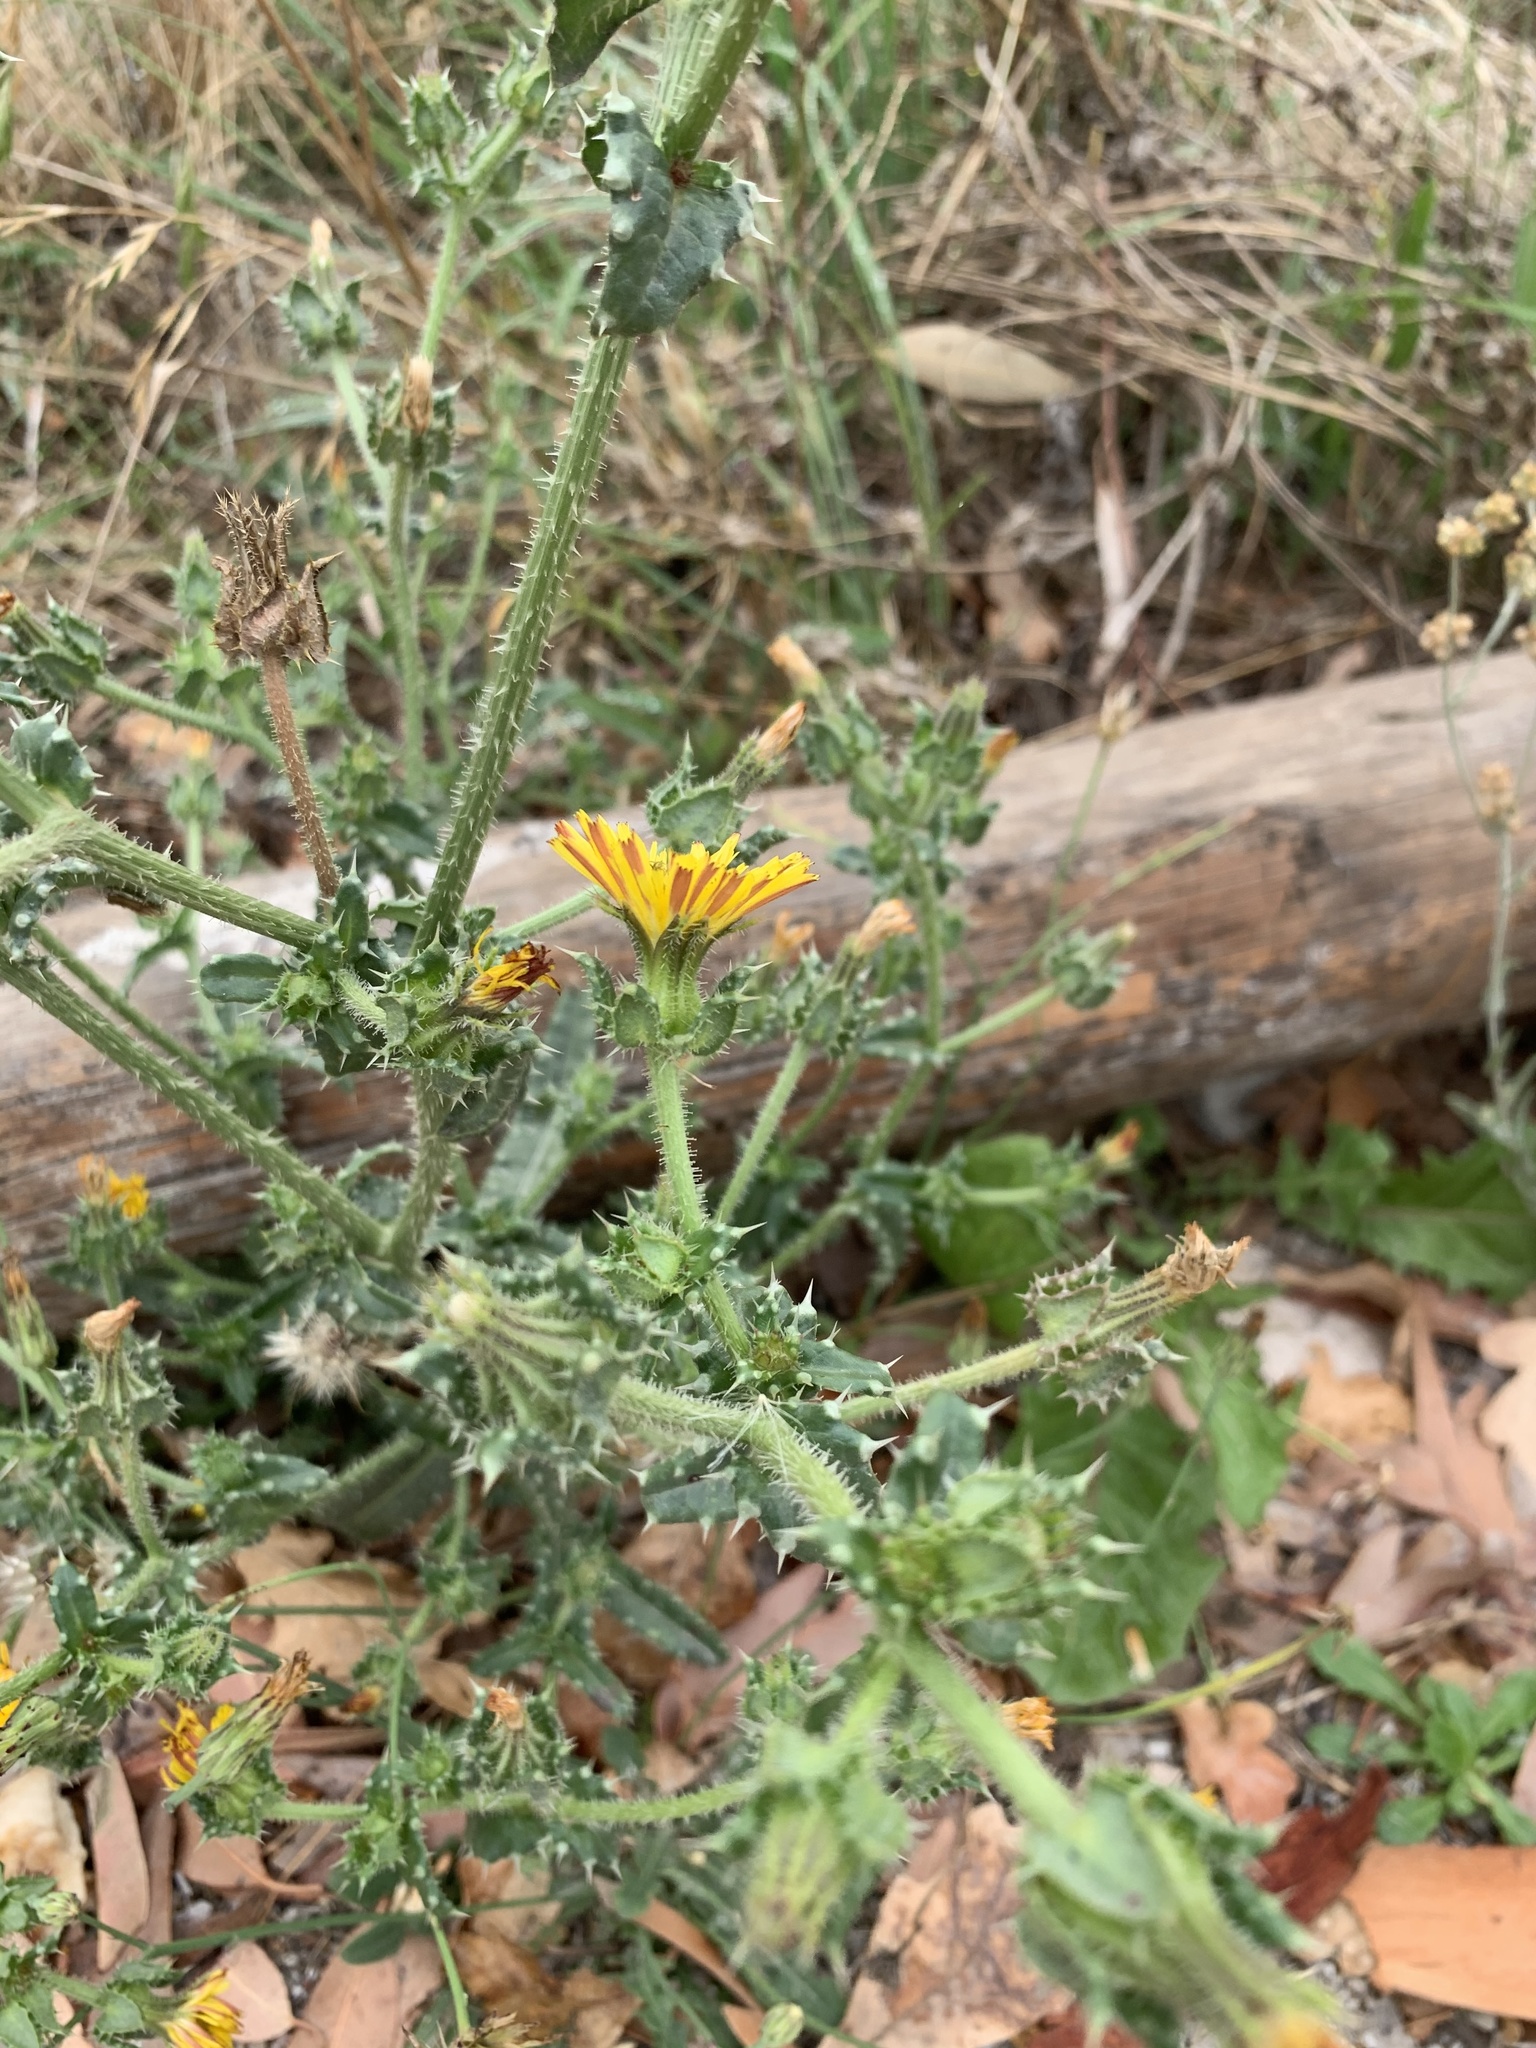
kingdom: Plantae
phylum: Tracheophyta
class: Magnoliopsida
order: Asterales
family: Asteraceae
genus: Helminthotheca
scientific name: Helminthotheca echioides
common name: Ox-tongue
